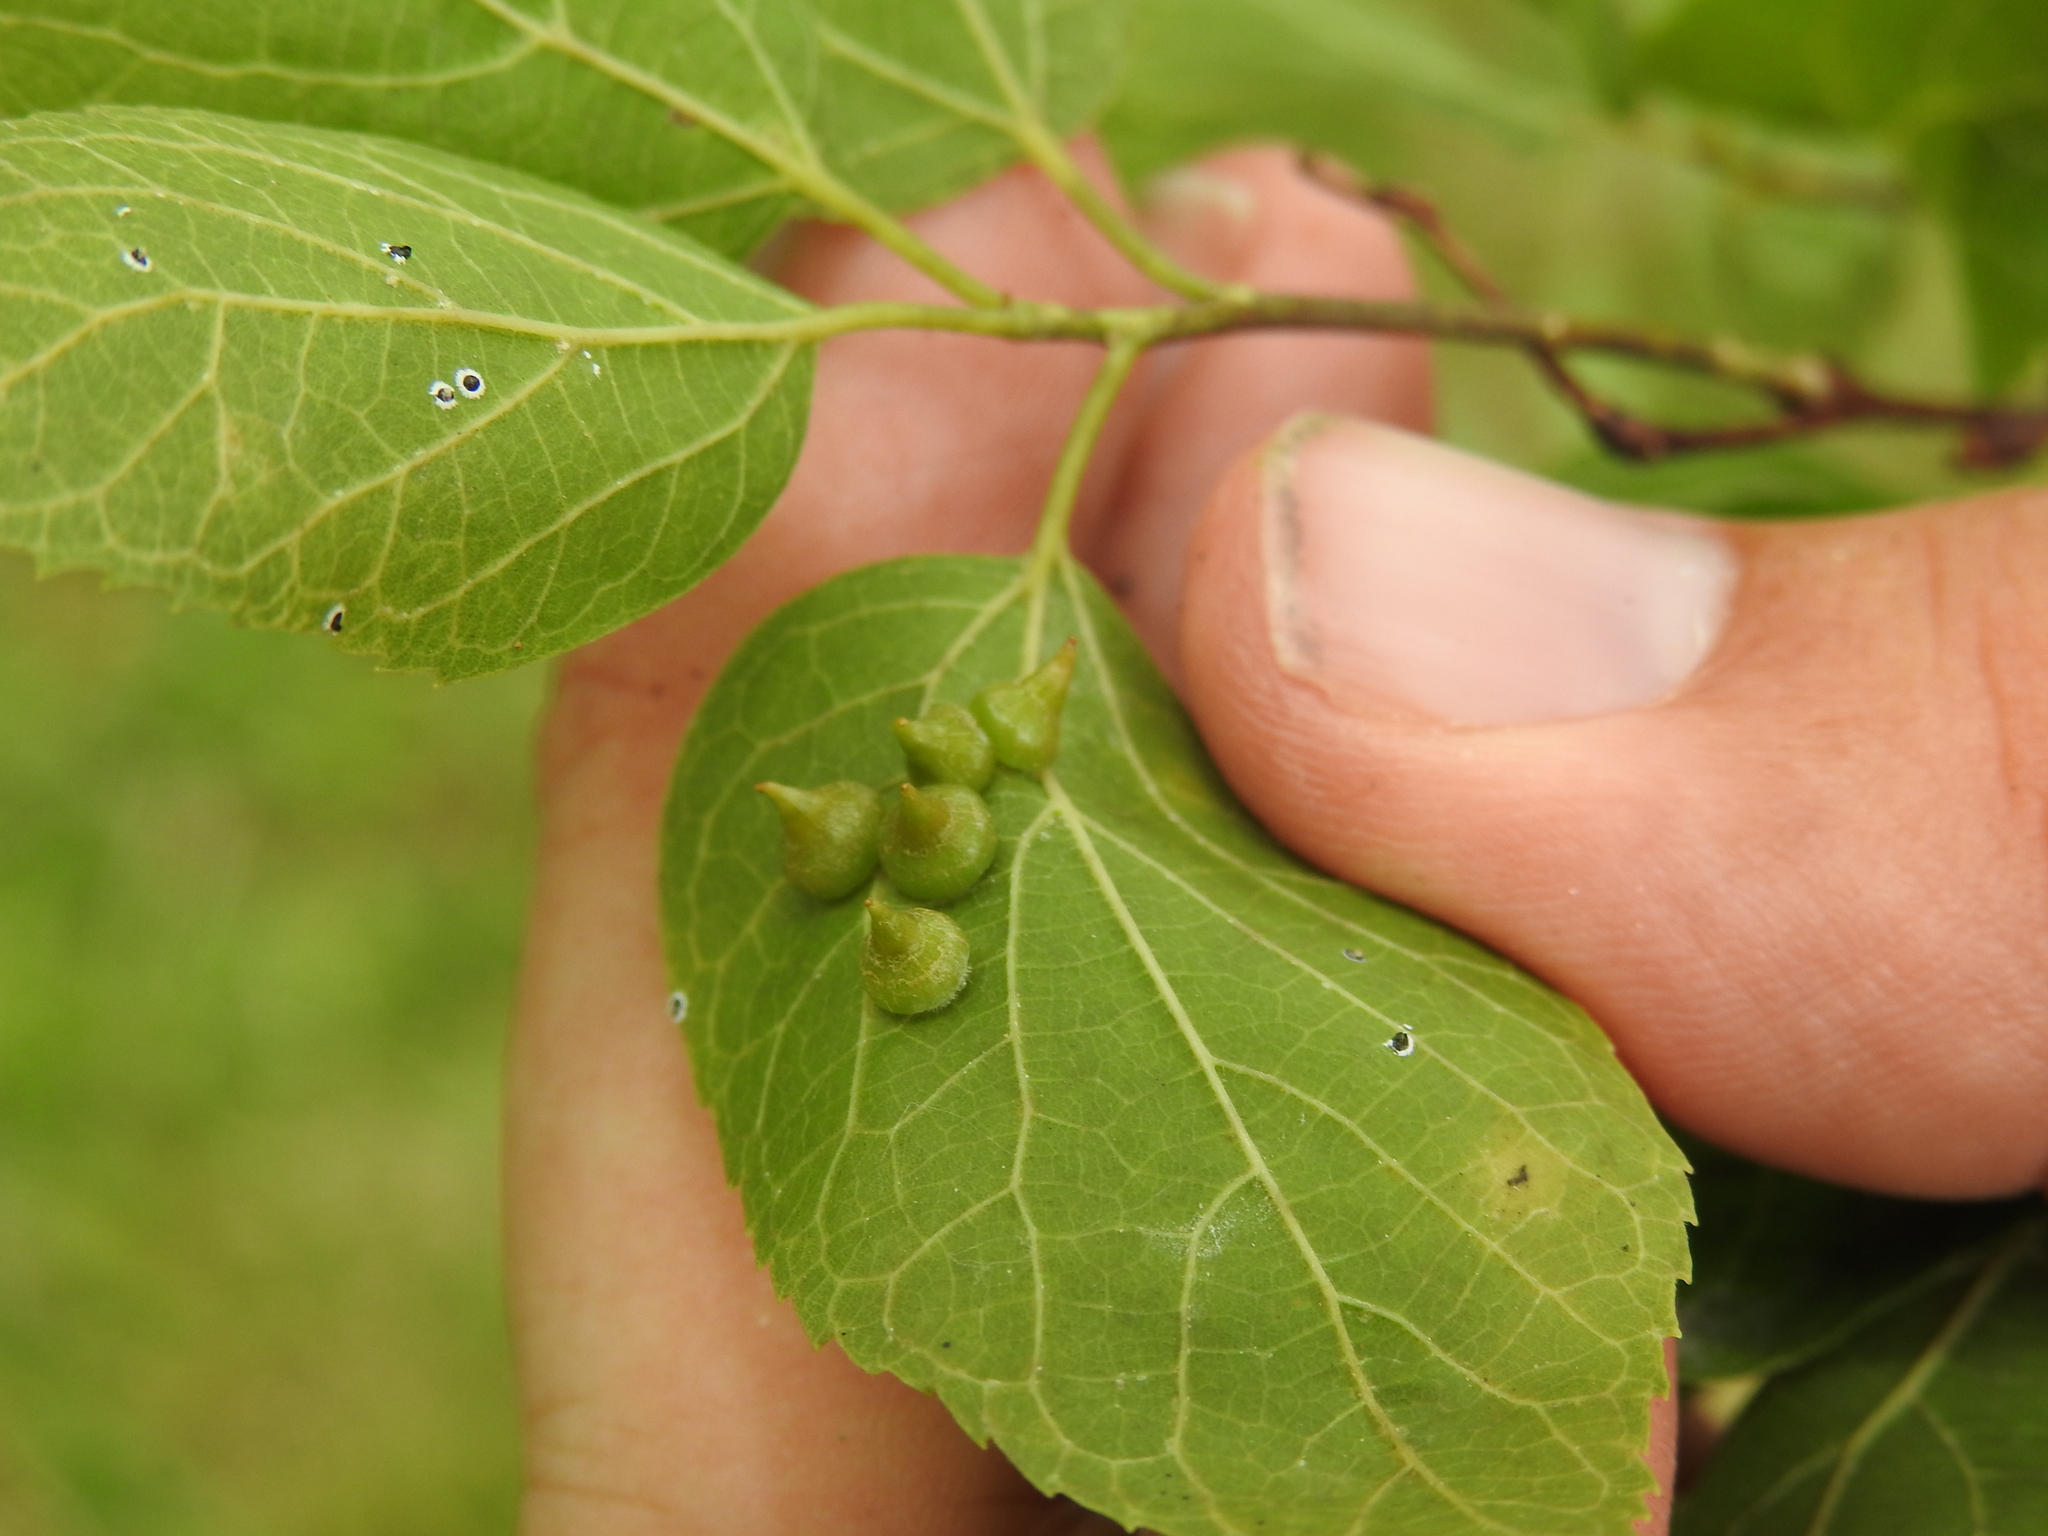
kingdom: Animalia
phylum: Arthropoda
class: Insecta
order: Diptera
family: Cecidomyiidae
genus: Celticecis
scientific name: Celticecis spiniformis
